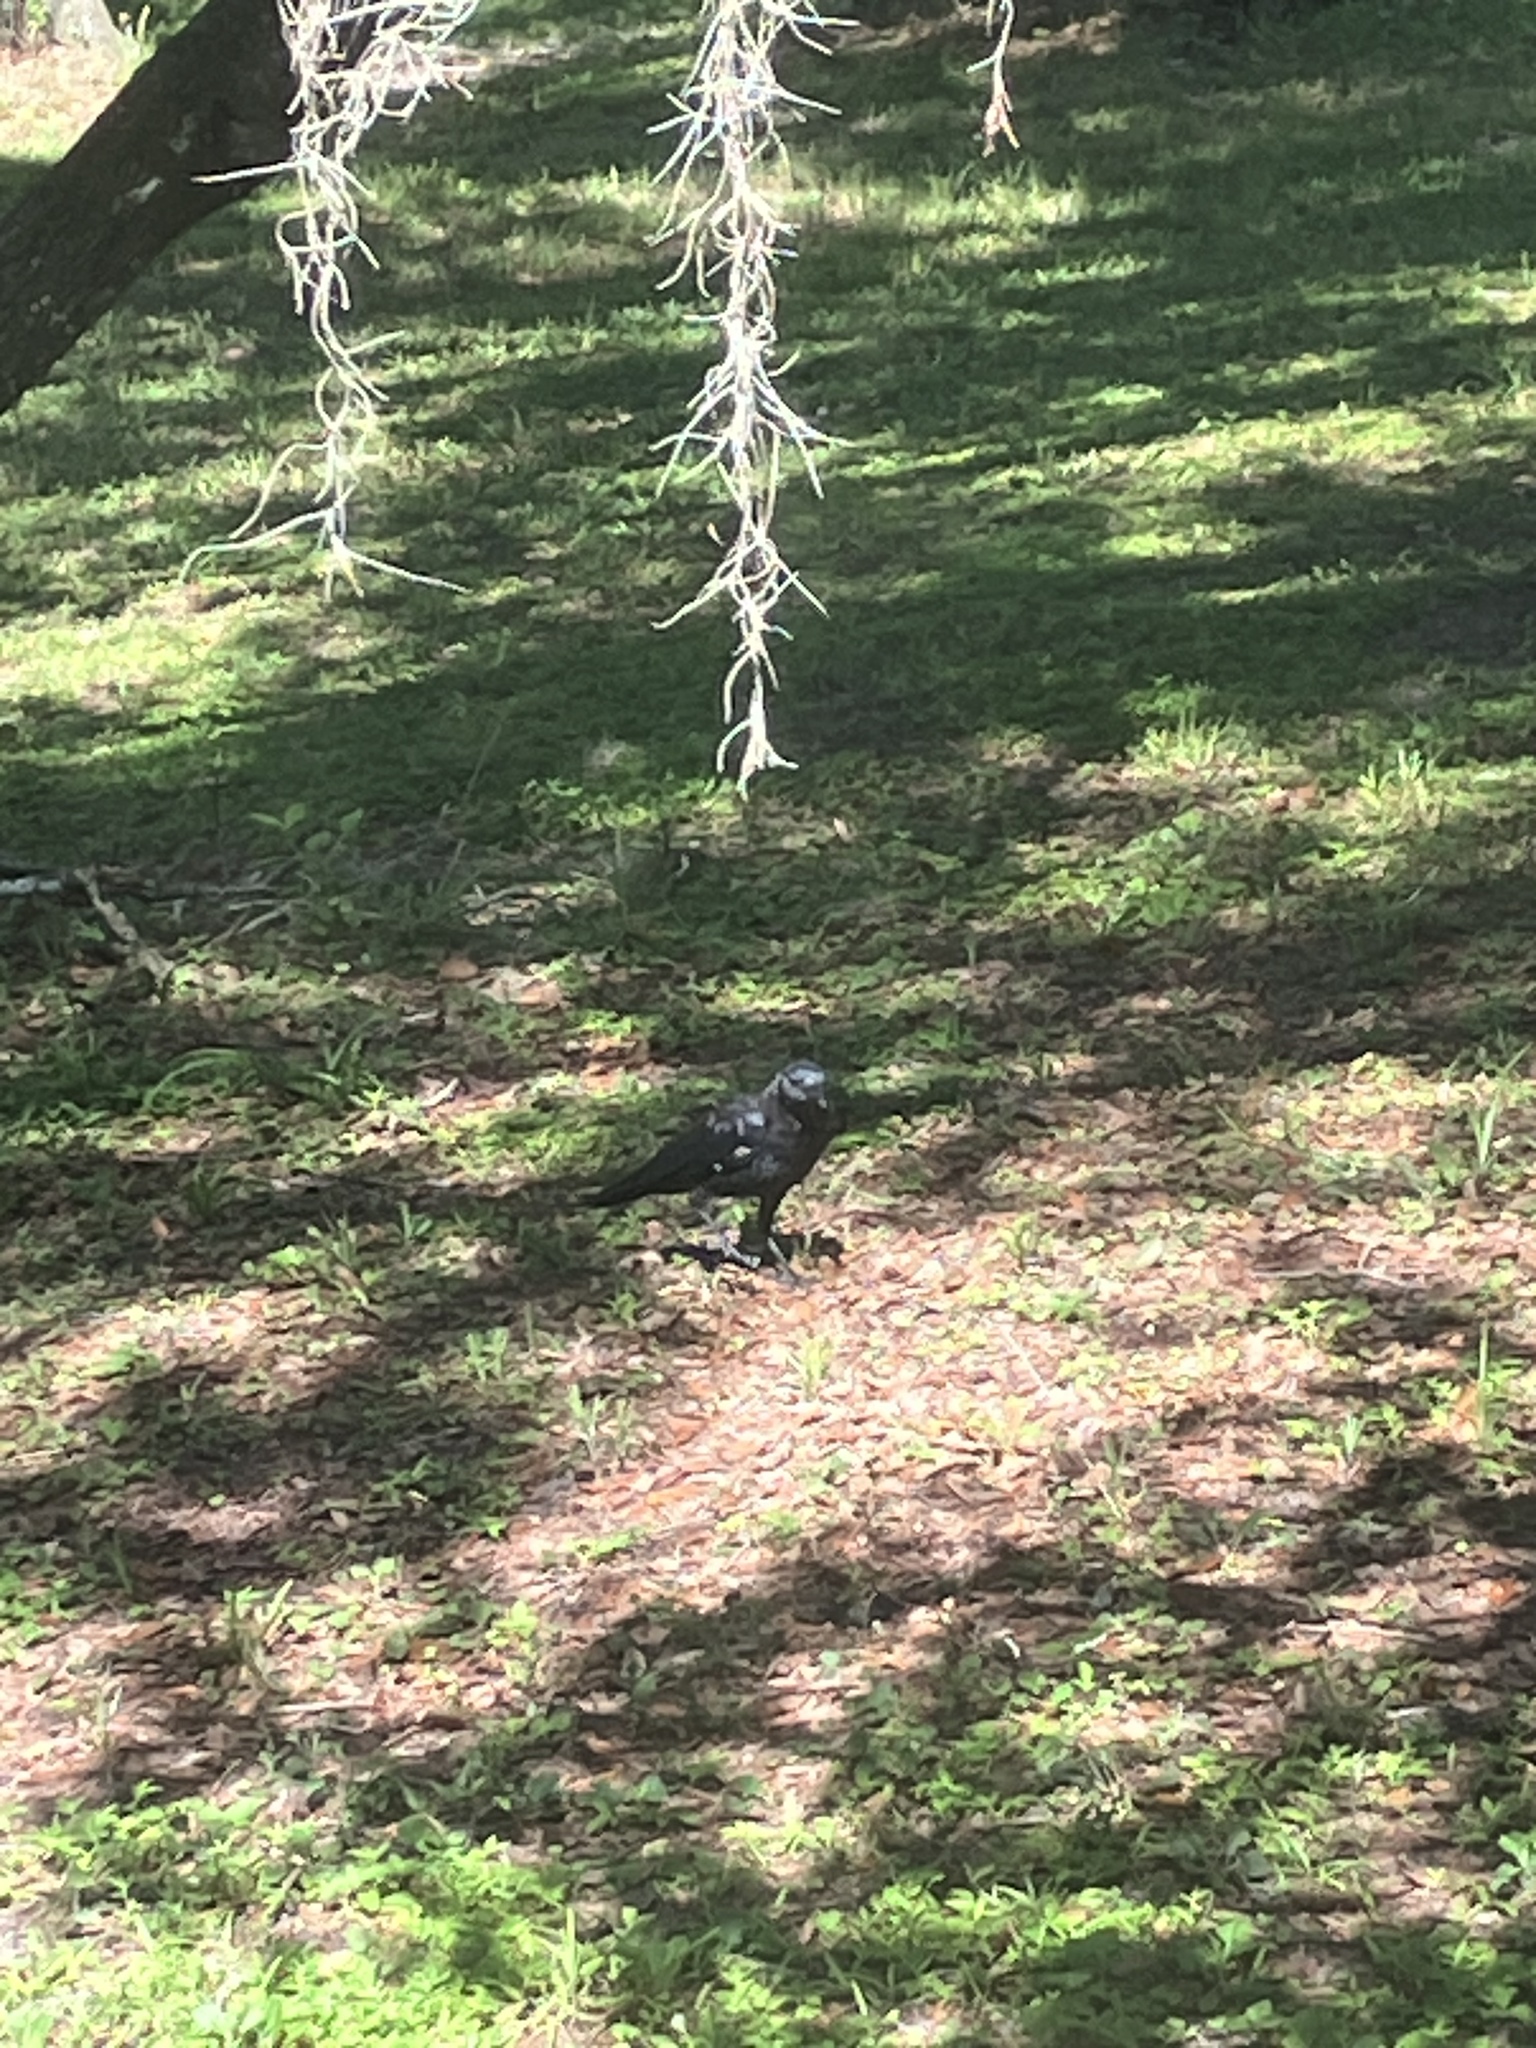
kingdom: Animalia
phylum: Chordata
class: Aves
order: Passeriformes
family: Corvidae
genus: Corvus
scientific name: Corvus brachyrhynchos
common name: American crow
